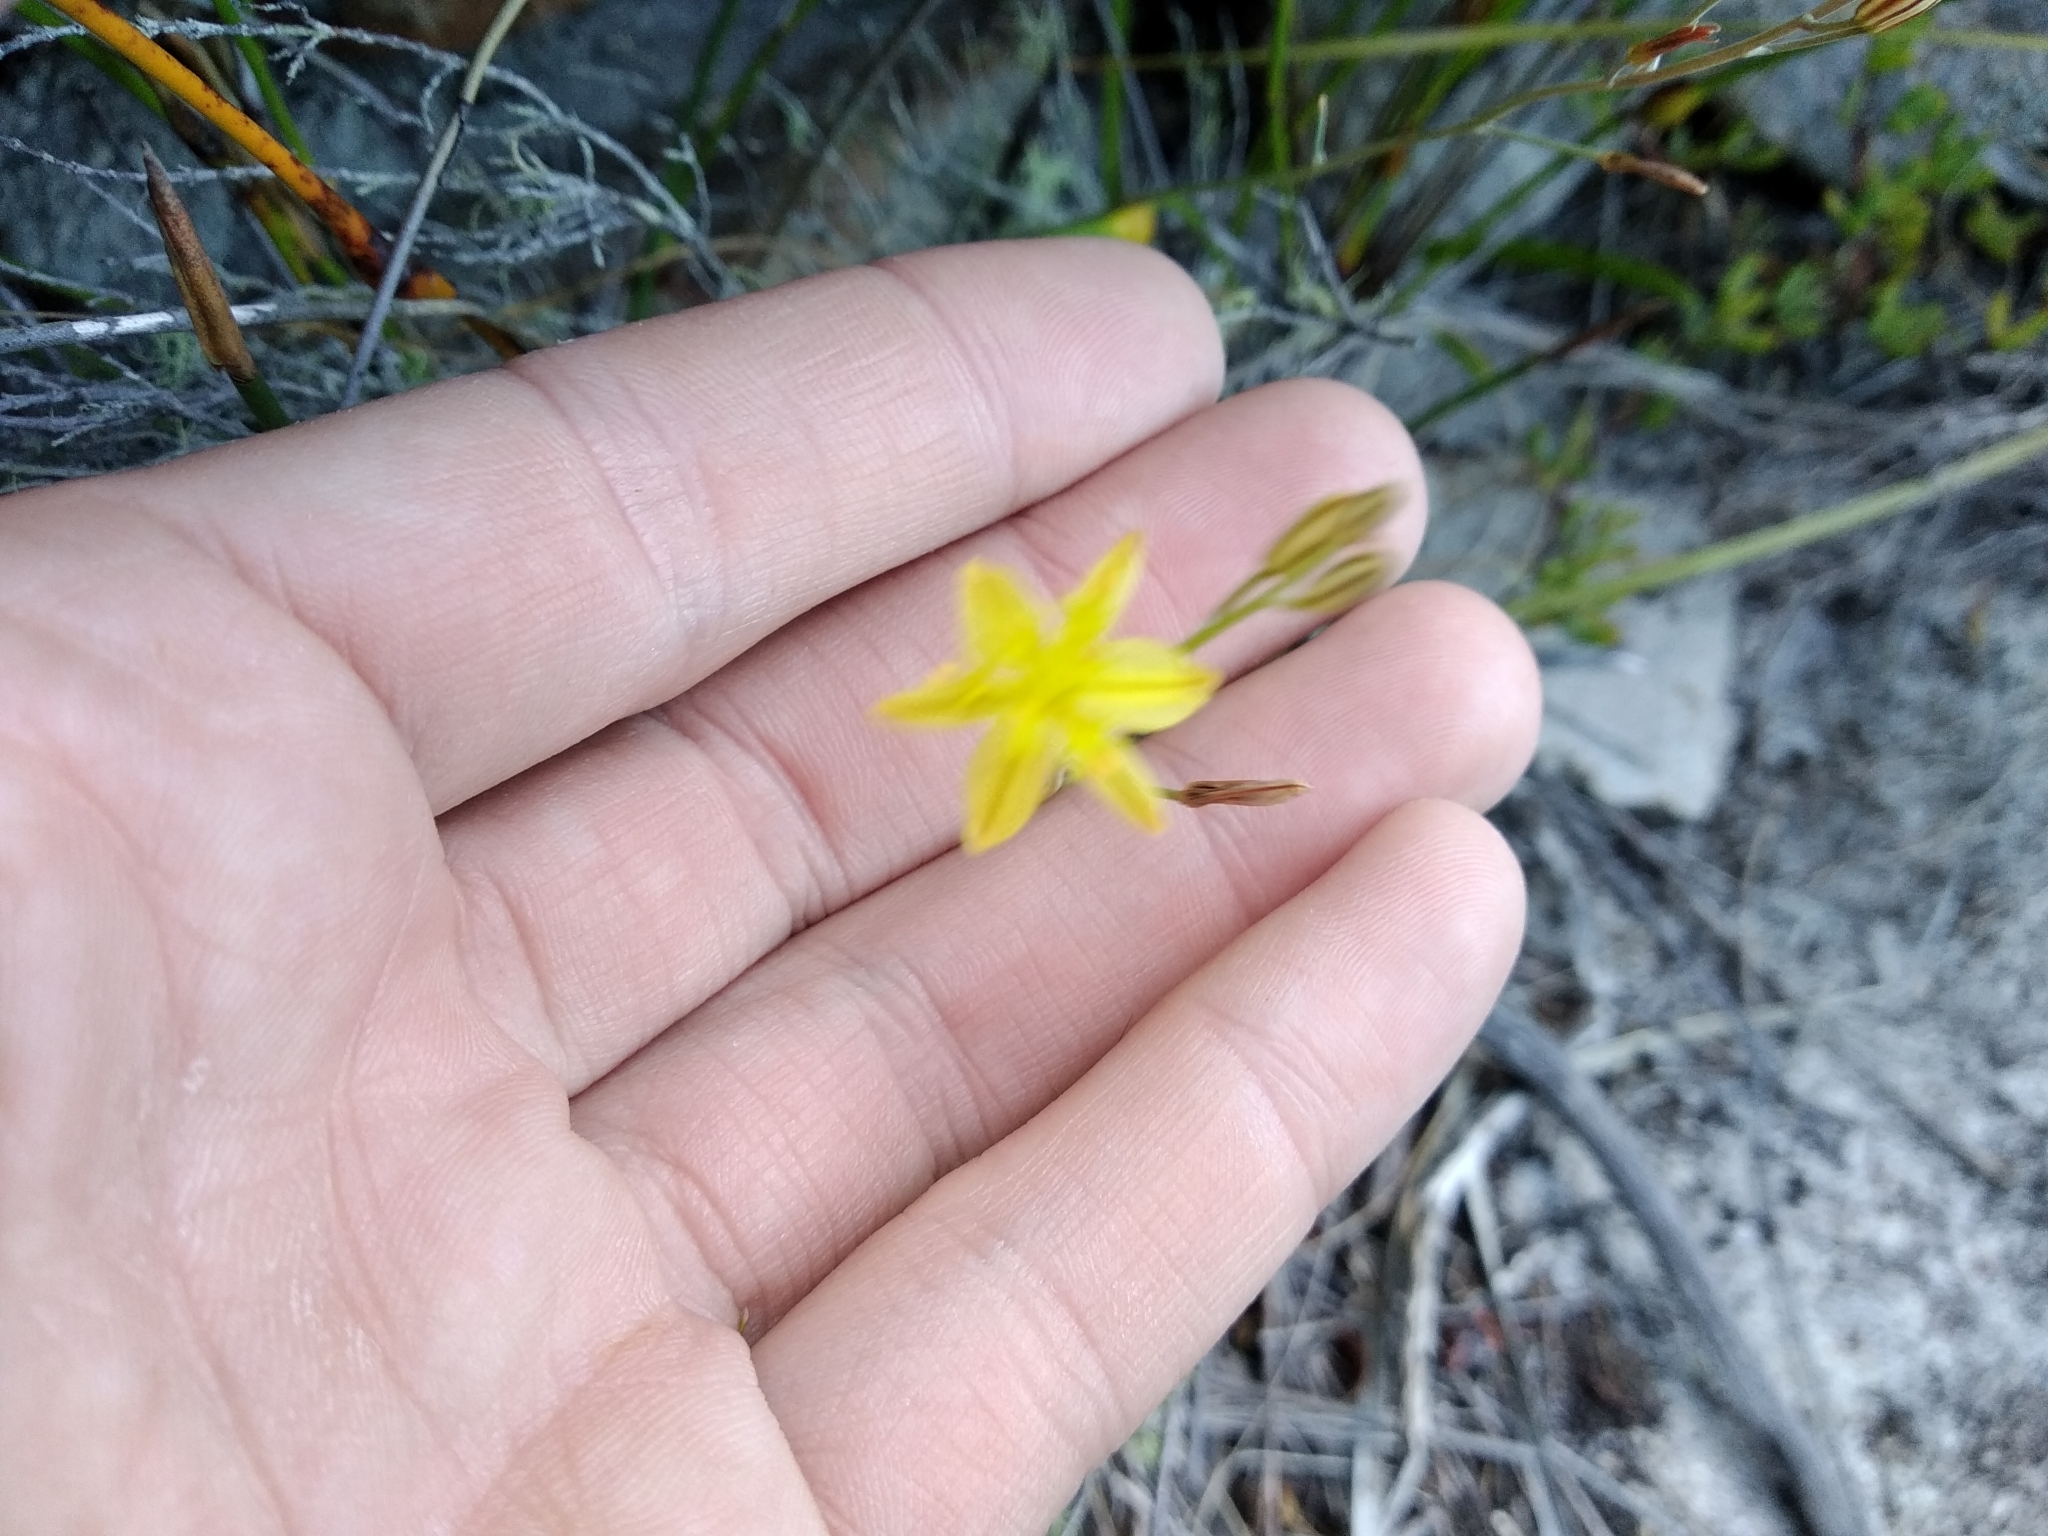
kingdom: Plantae
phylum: Tracheophyta
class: Liliopsida
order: Asparagales
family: Asphodelaceae
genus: Bulbine
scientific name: Bulbine favosa
